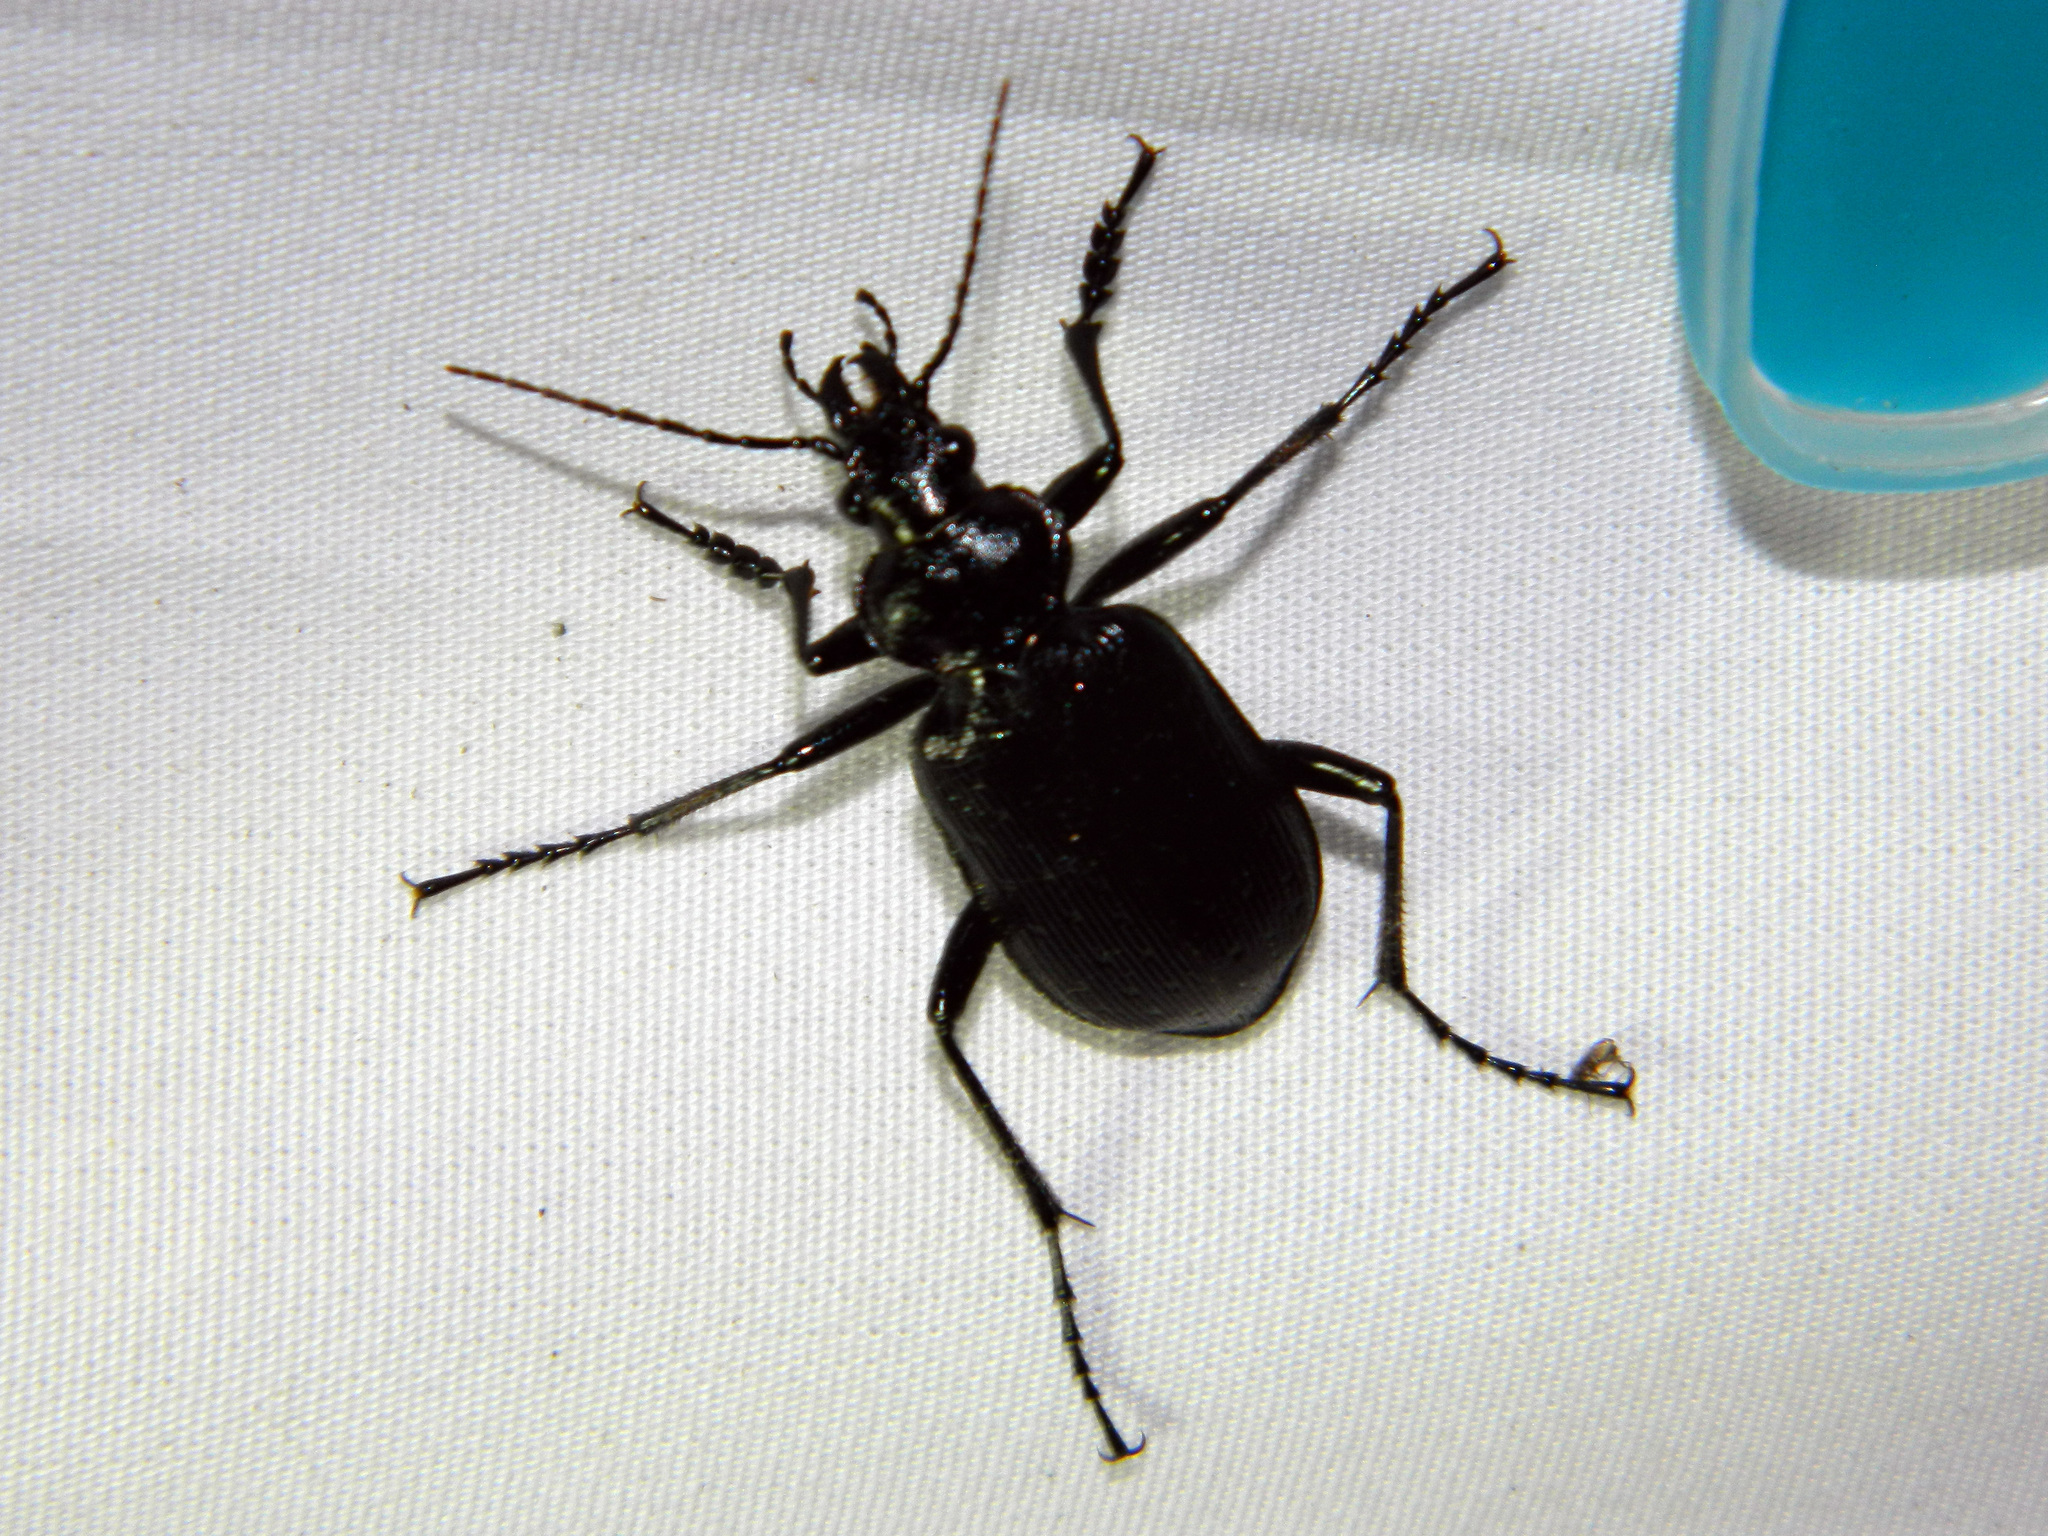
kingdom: Animalia
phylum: Arthropoda
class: Insecta
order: Coleoptera
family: Carabidae
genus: Calosoma
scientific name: Calosoma frigidum
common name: Cold-country caterpillar hunter
